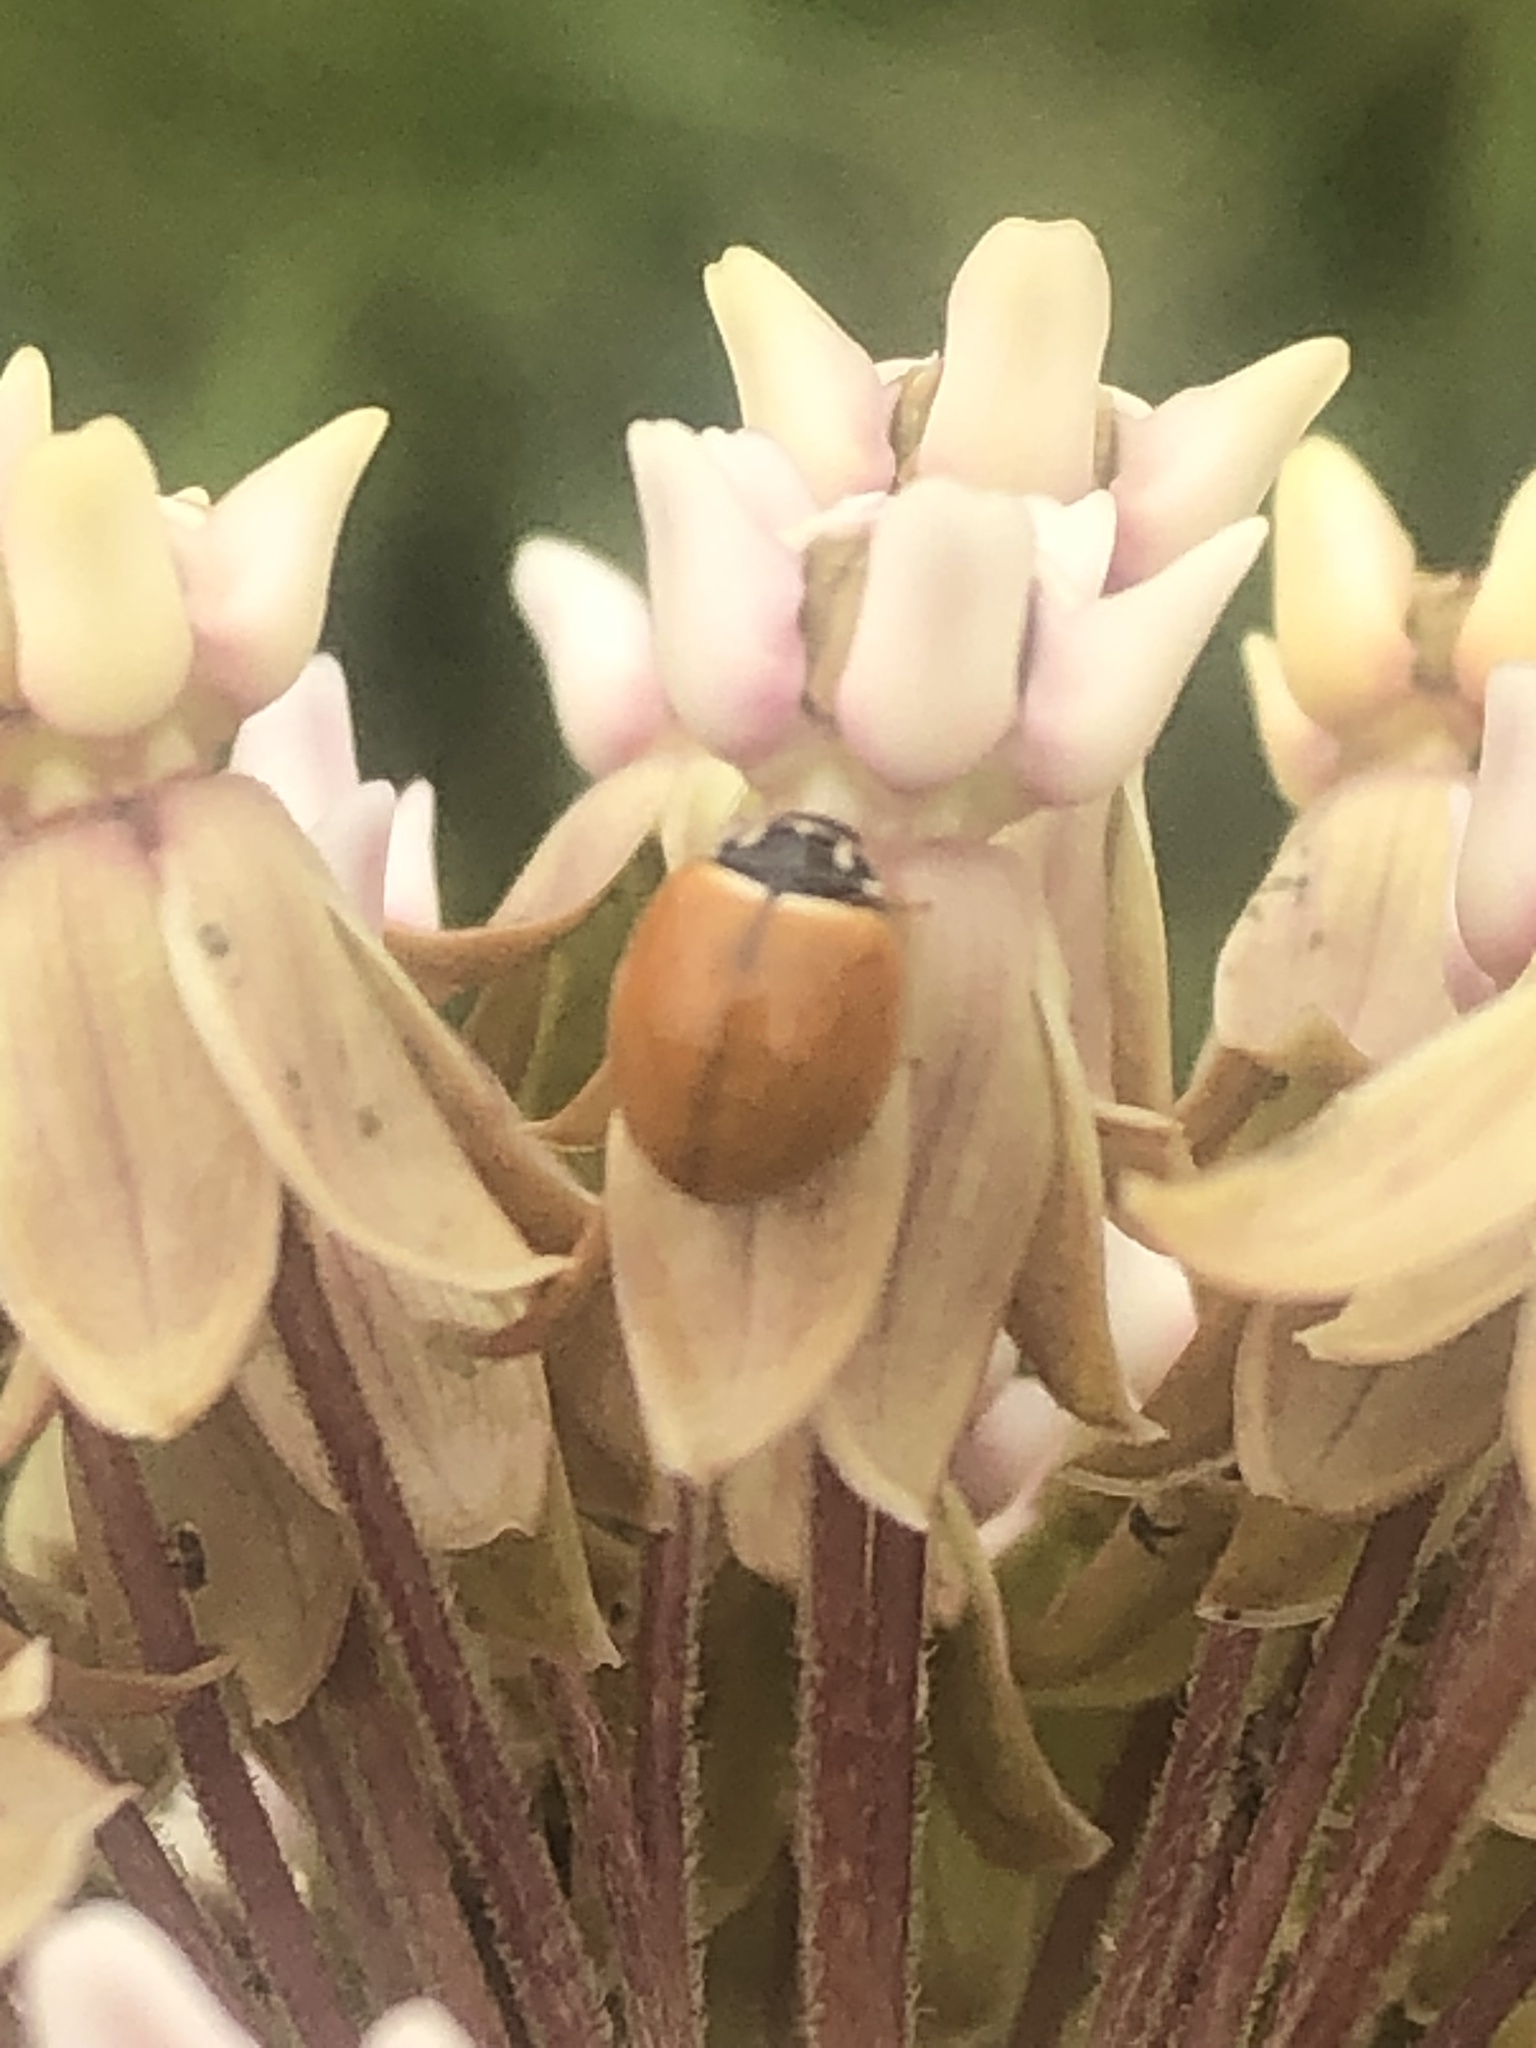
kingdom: Animalia
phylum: Arthropoda
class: Insecta
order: Coleoptera
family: Coccinellidae
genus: Cycloneda
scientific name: Cycloneda munda
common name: Polished lady beetle
